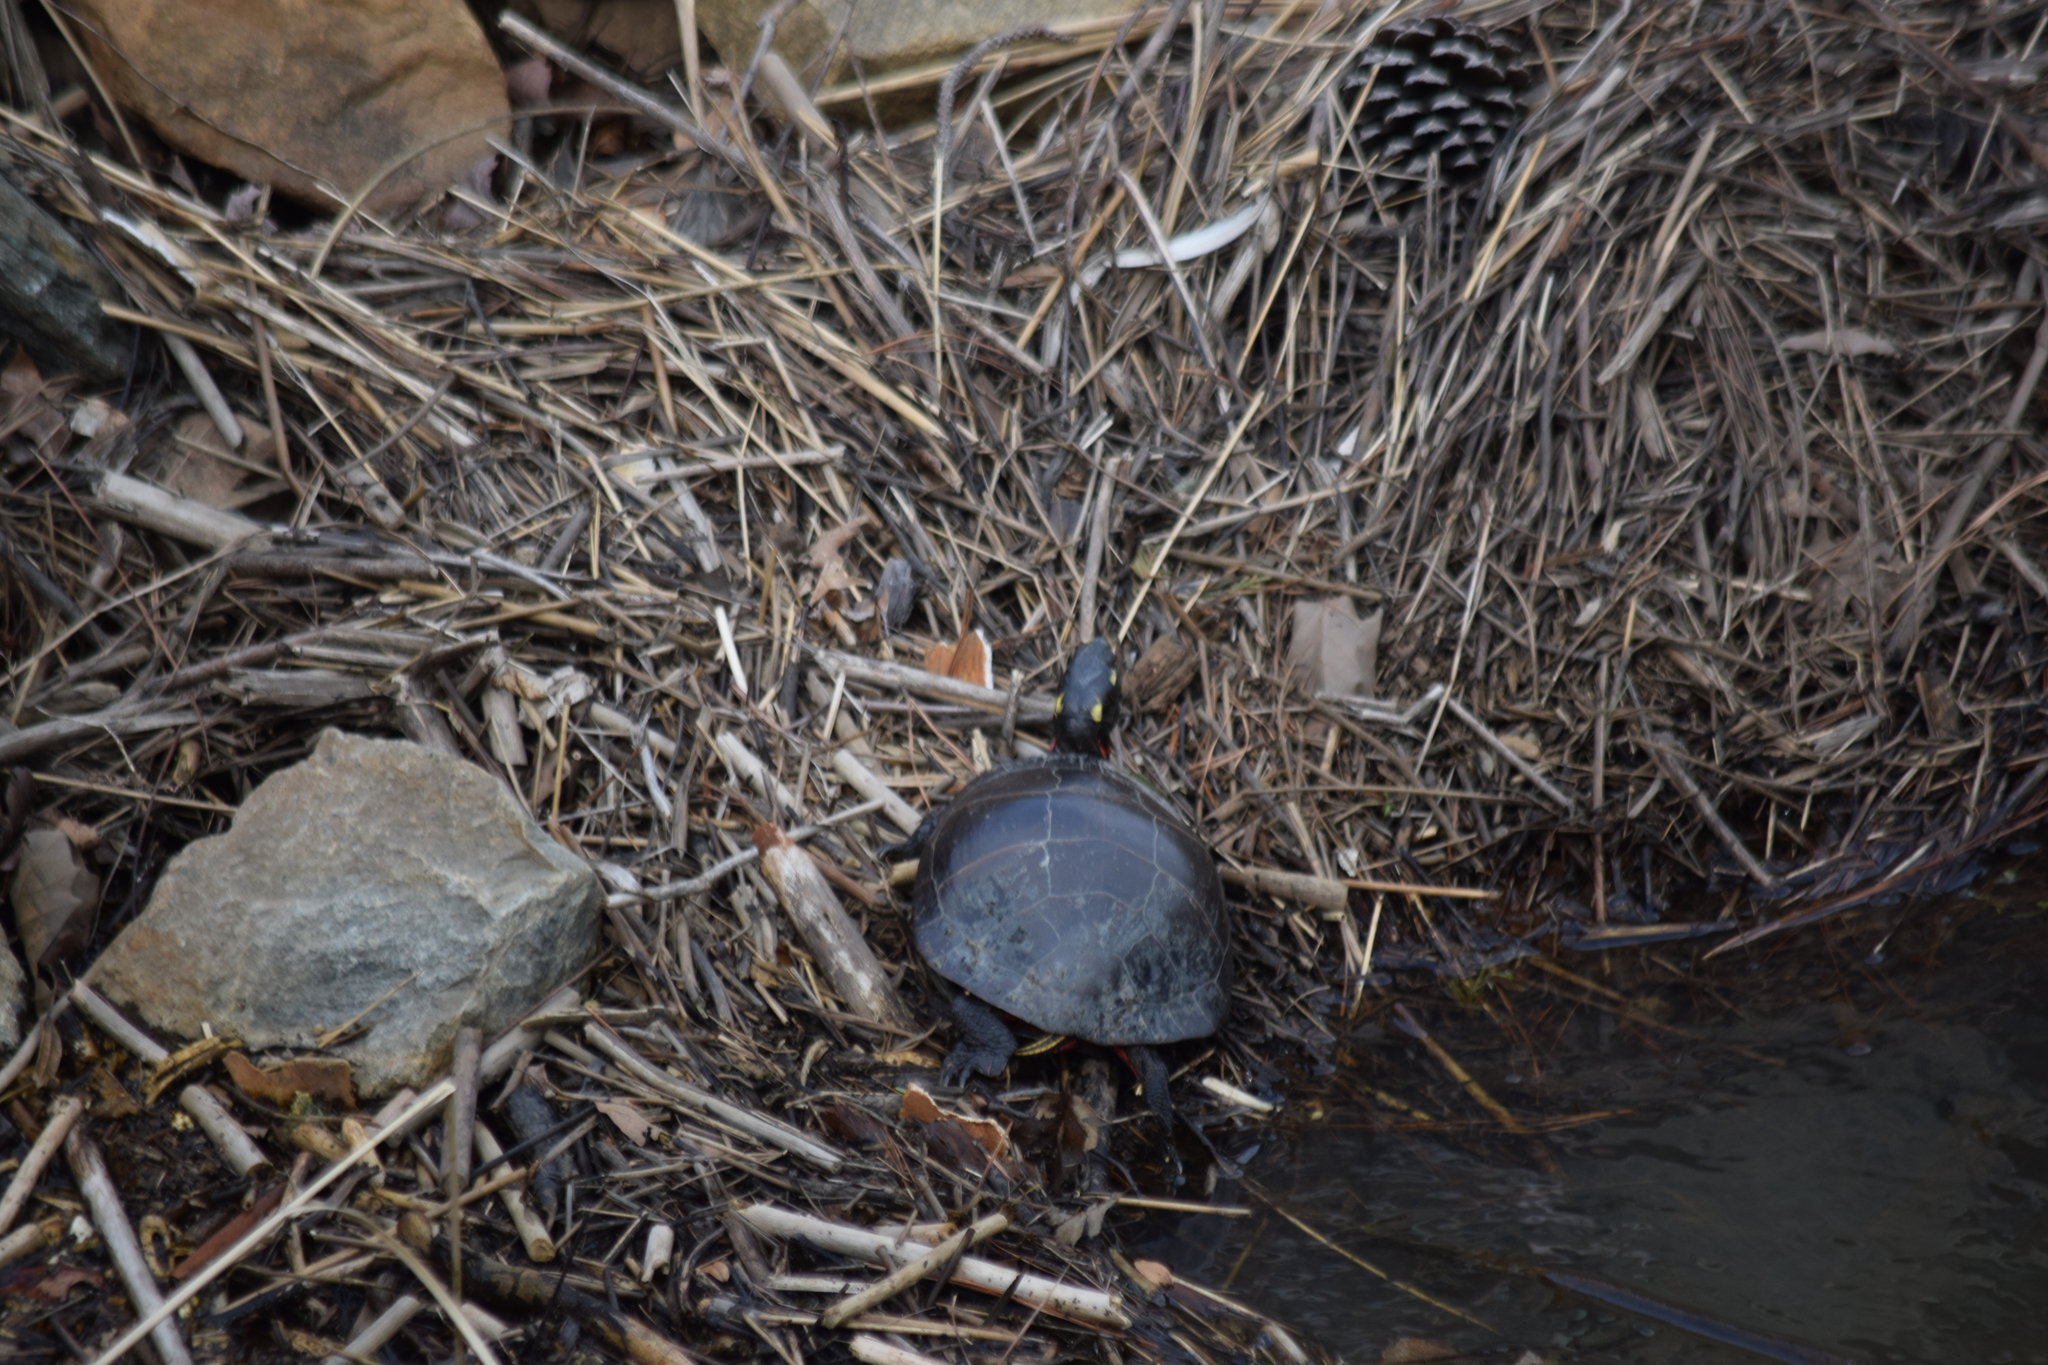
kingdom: Animalia
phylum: Chordata
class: Testudines
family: Emydidae
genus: Chrysemys
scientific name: Chrysemys picta
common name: Painted turtle
